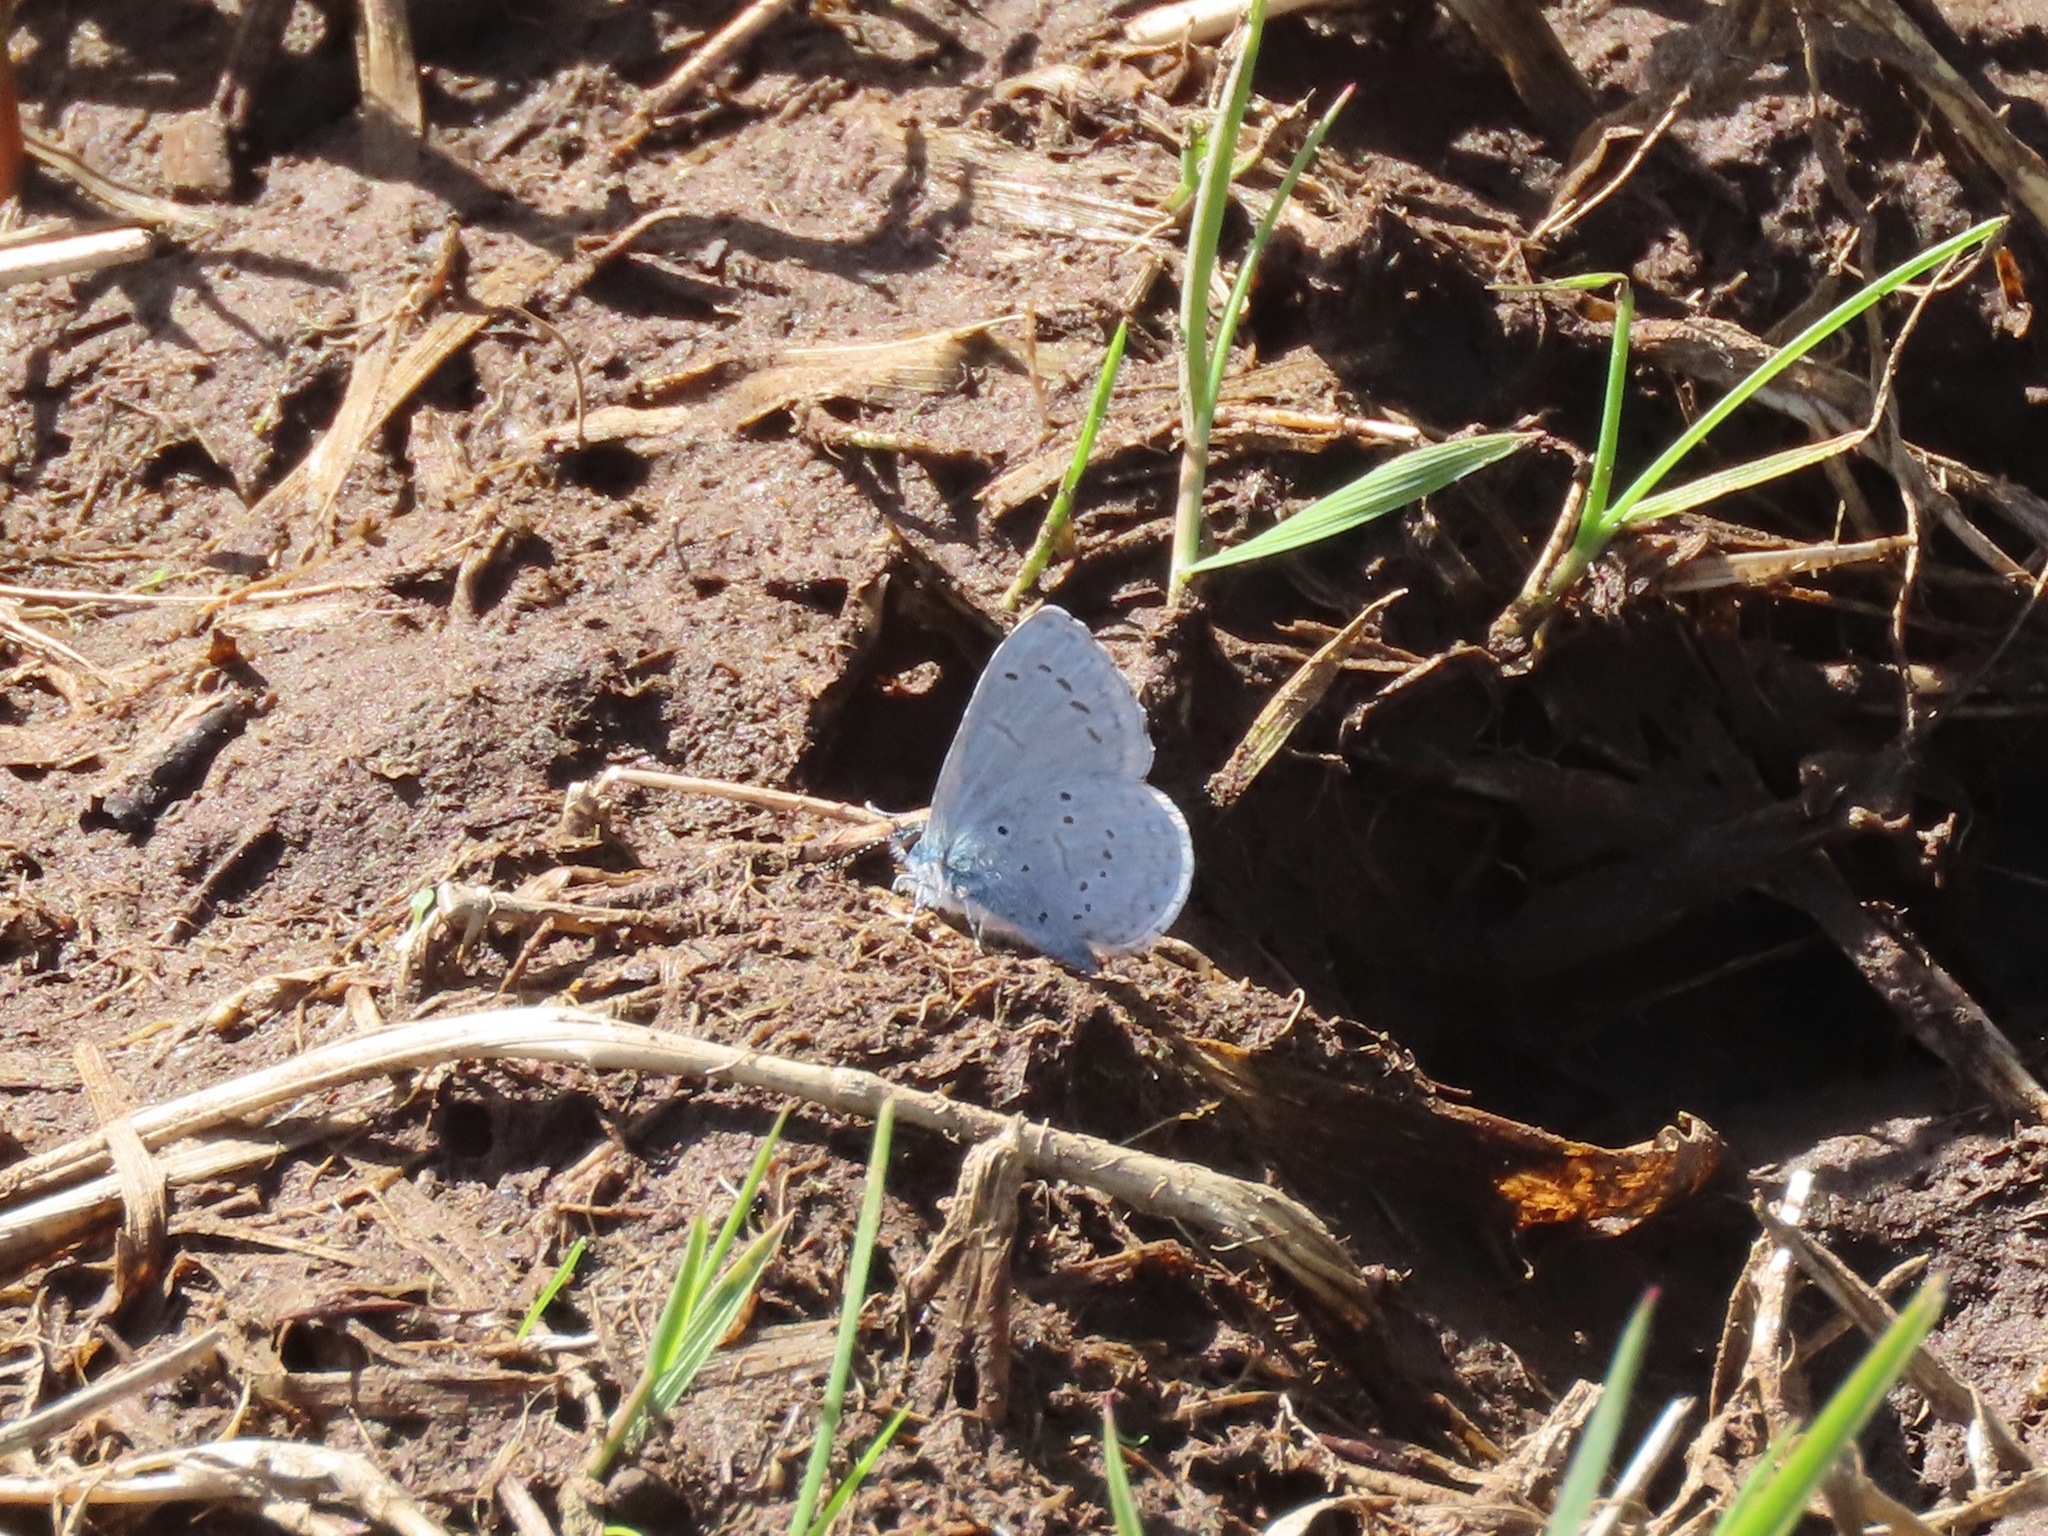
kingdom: Animalia
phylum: Arthropoda
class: Insecta
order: Lepidoptera
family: Lycaenidae
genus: Celastrina
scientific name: Celastrina ladon
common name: Spring azure
